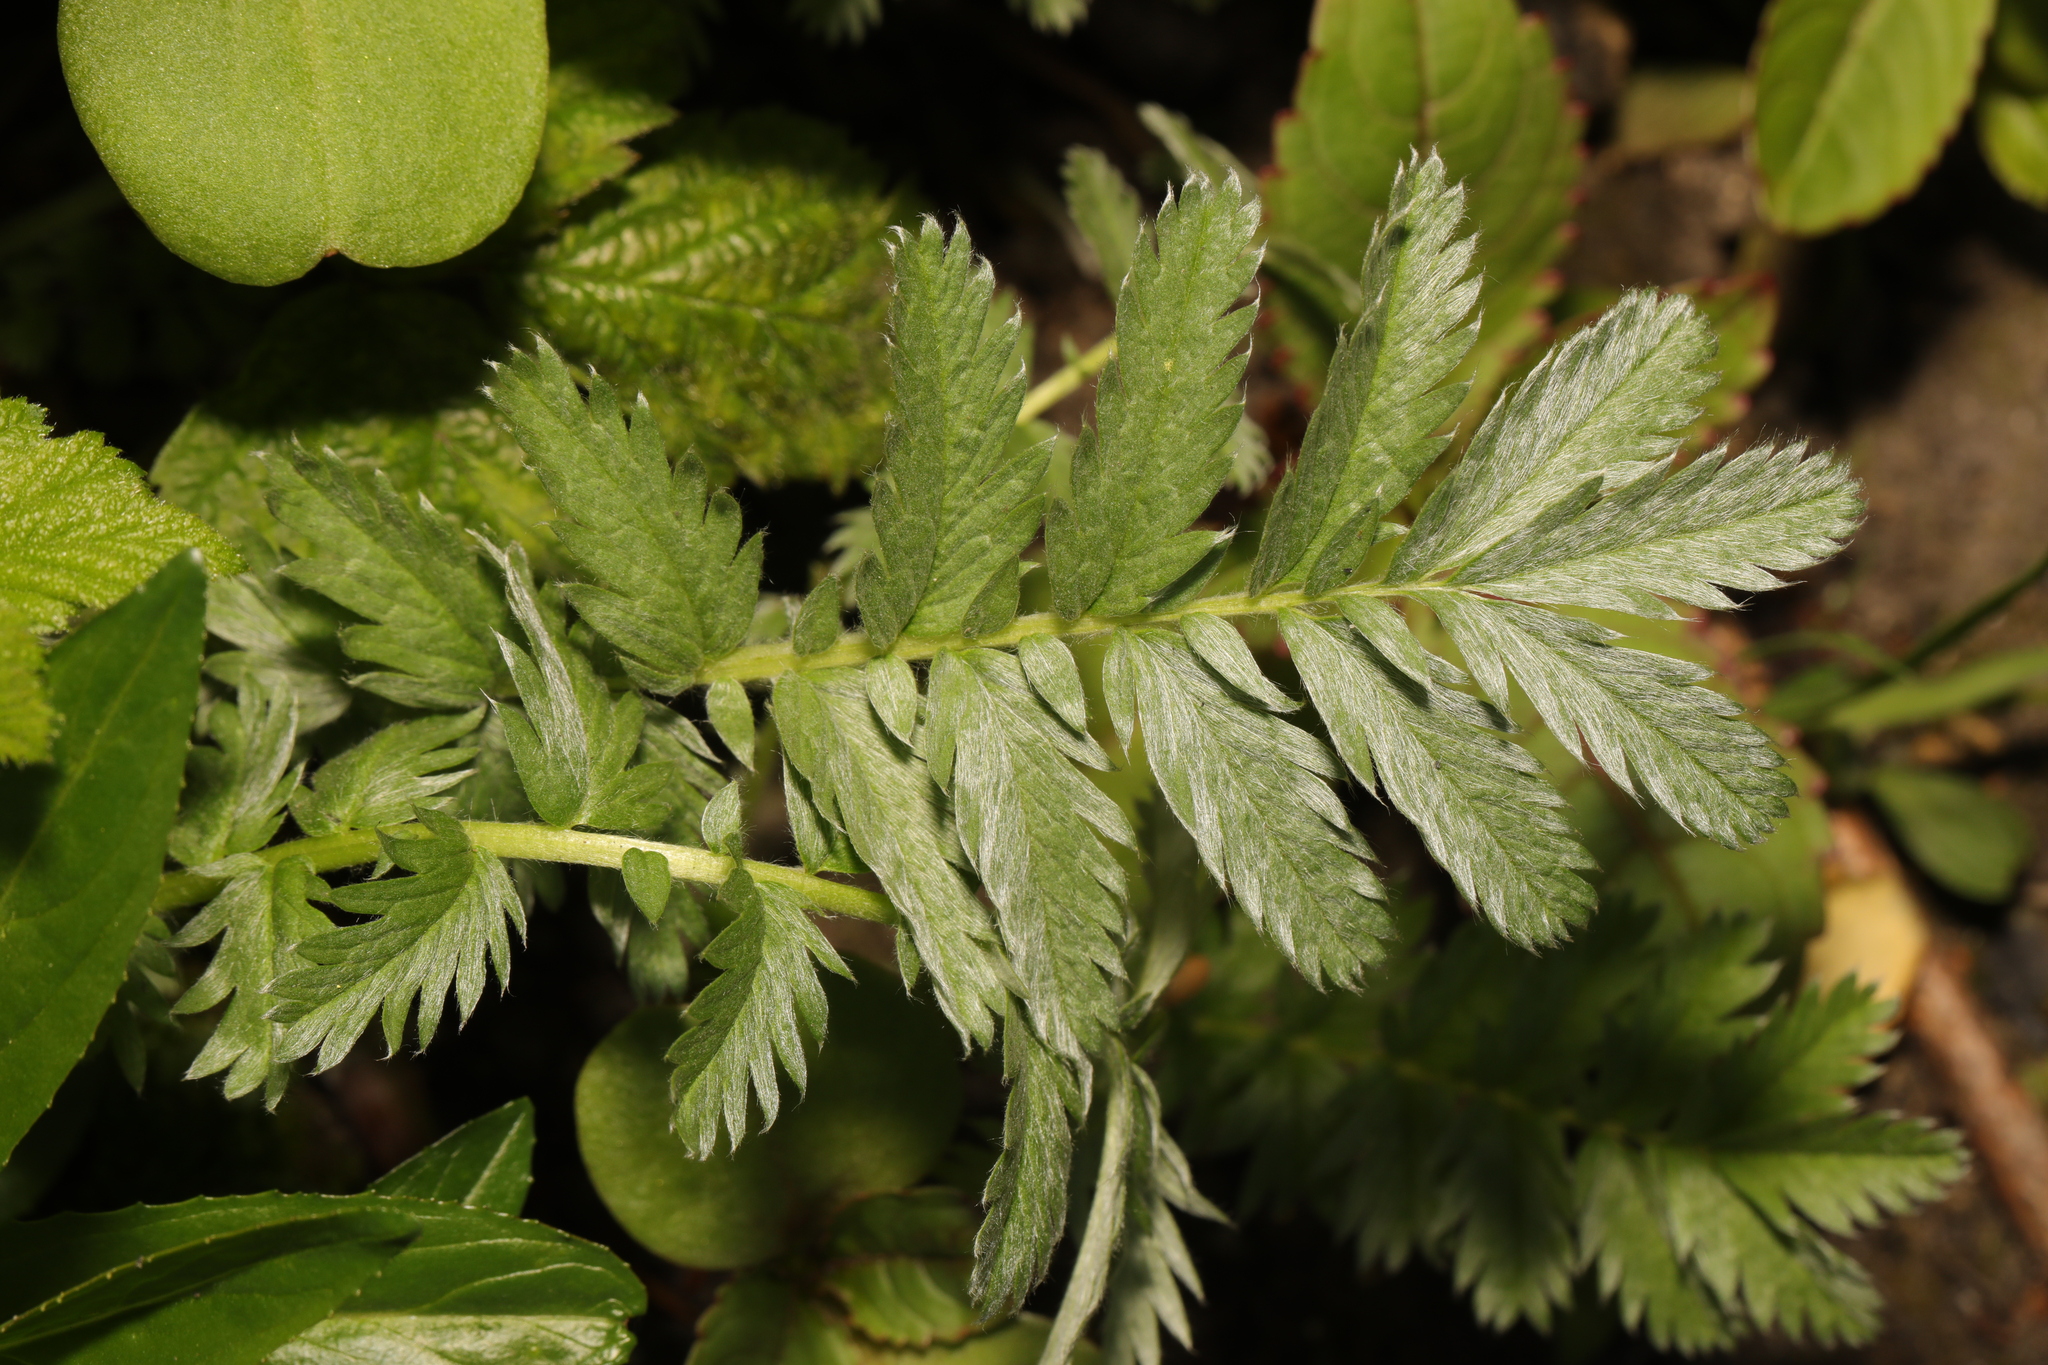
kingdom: Plantae
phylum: Tracheophyta
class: Magnoliopsida
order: Rosales
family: Rosaceae
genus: Argentina
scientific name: Argentina anserina
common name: Common silverweed
